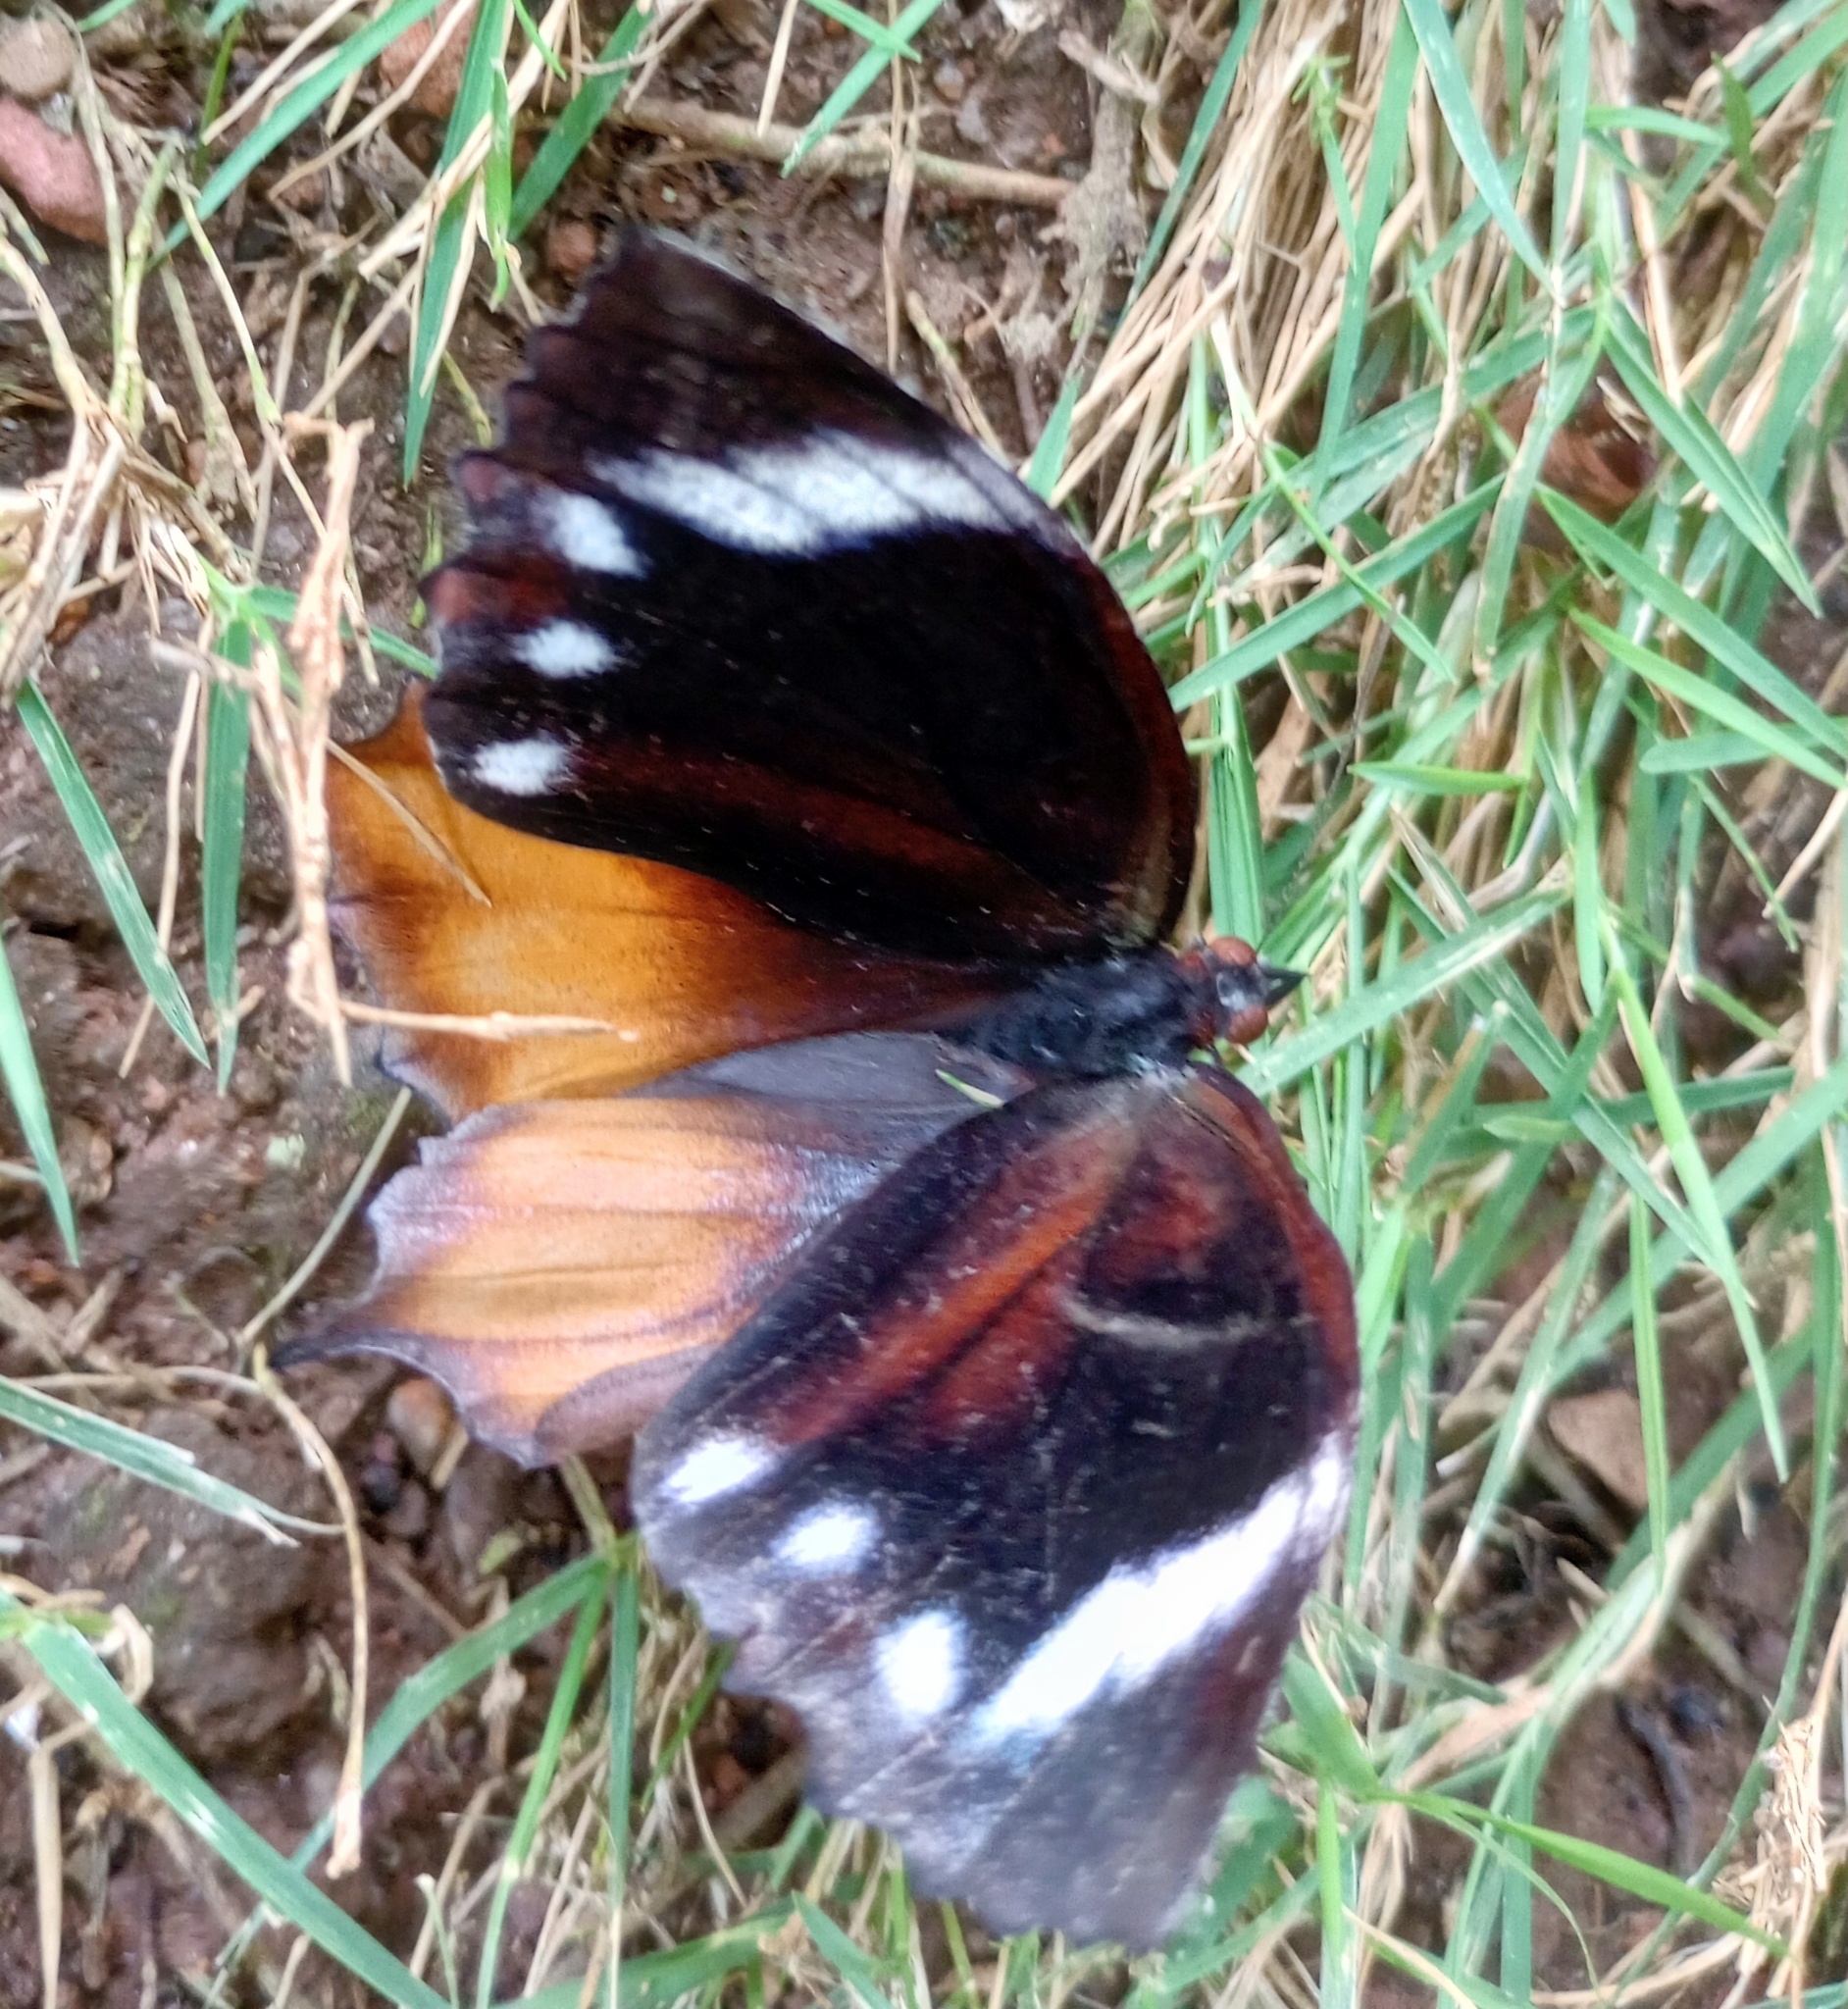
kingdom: Animalia
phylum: Arthropoda
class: Insecta
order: Lepidoptera
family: Nymphalidae
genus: Elymnias
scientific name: Elymnias caudata
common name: Tailed palmfly
